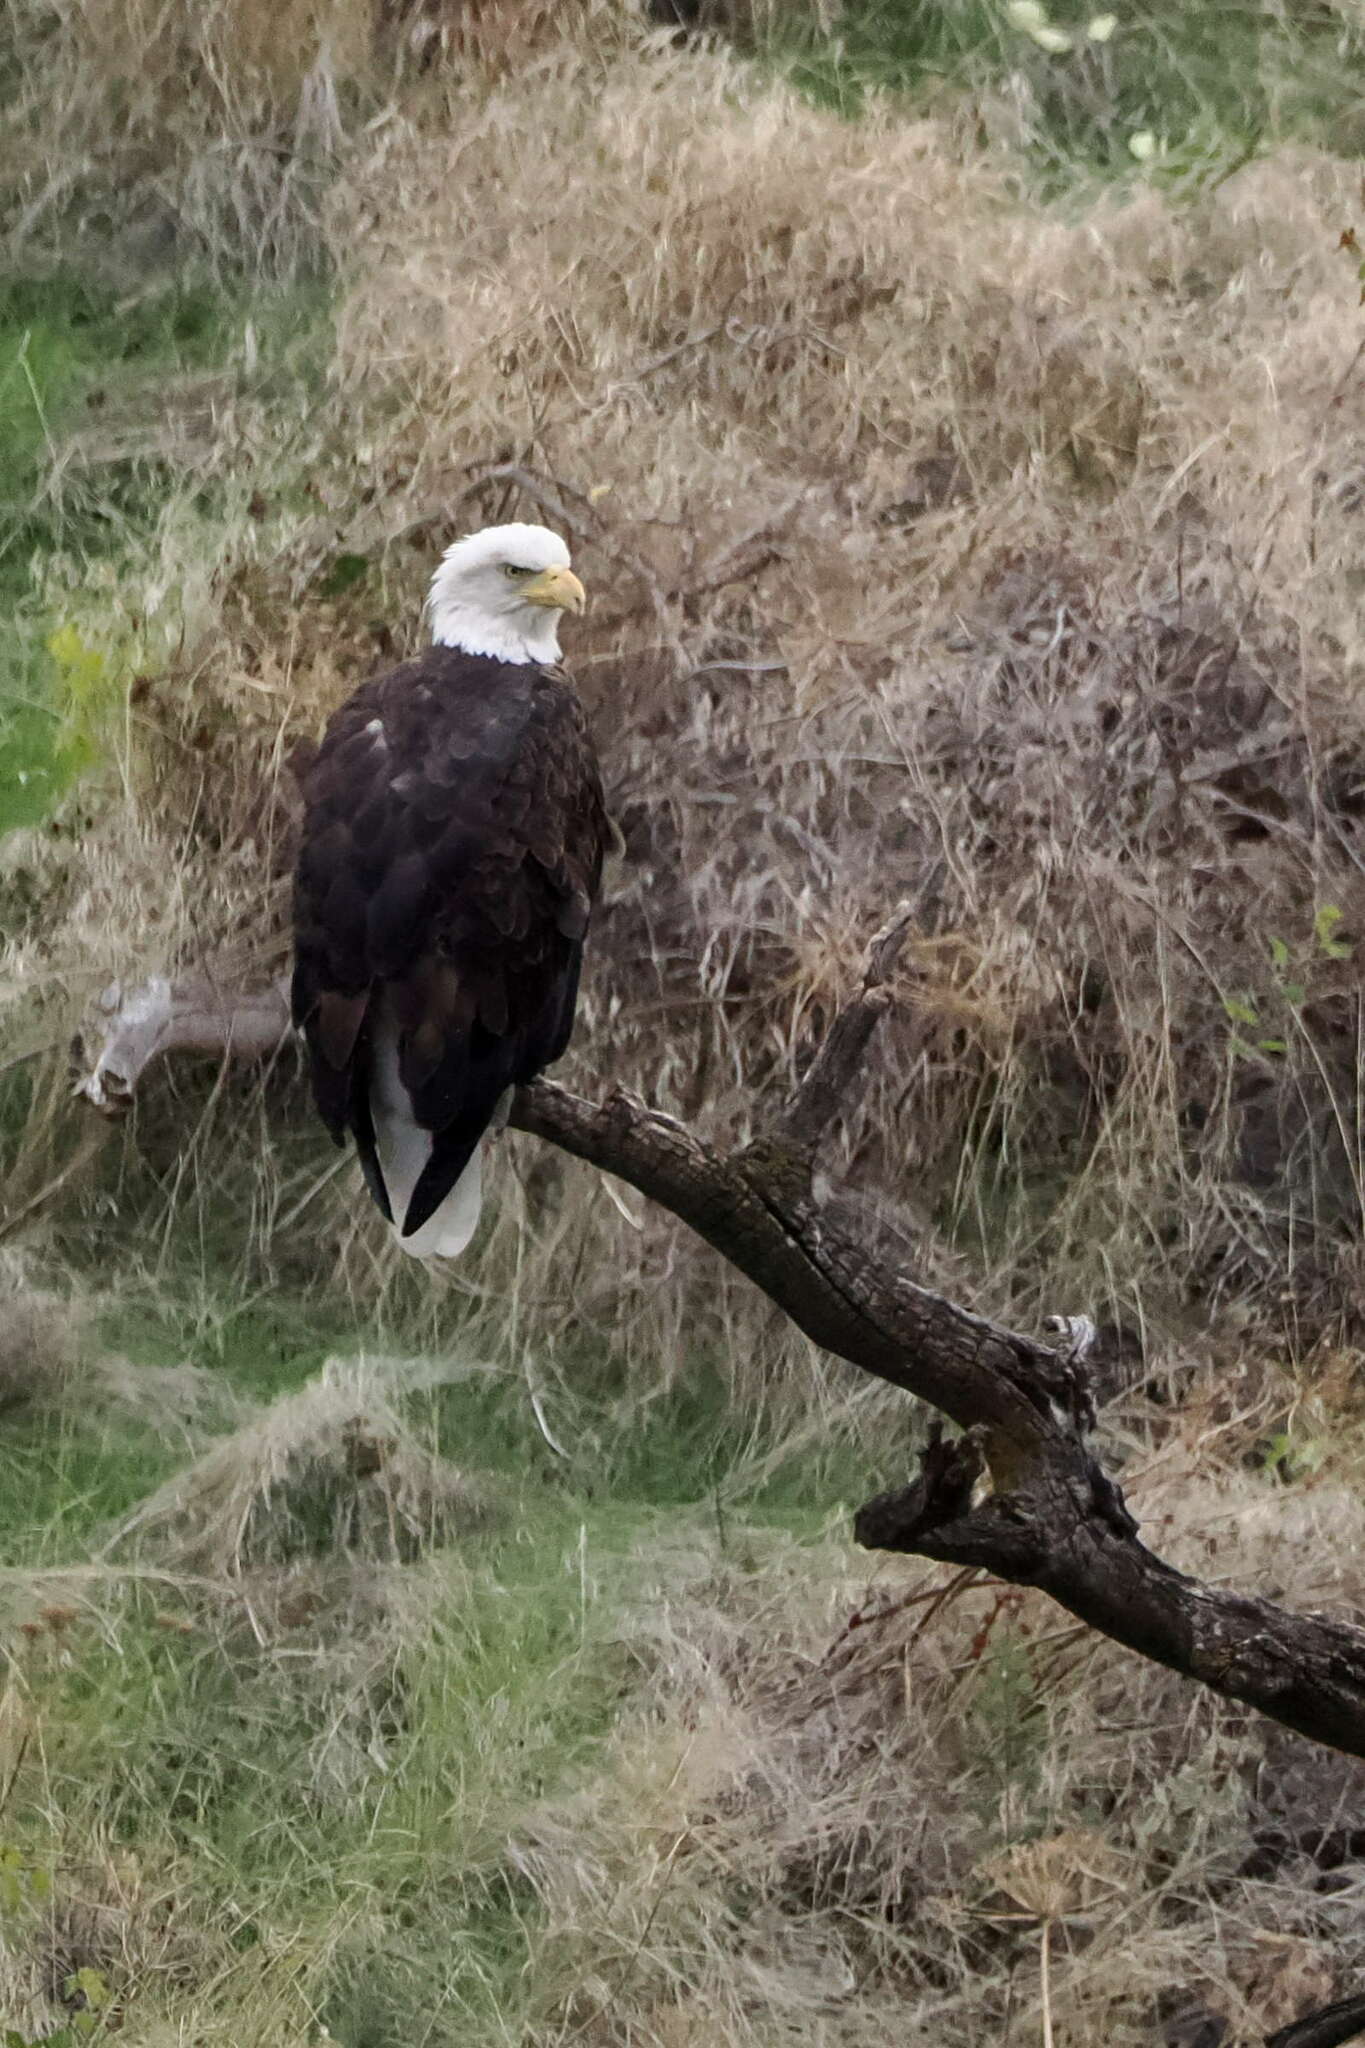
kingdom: Animalia
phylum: Chordata
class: Aves
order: Accipitriformes
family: Accipitridae
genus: Haliaeetus
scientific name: Haliaeetus leucocephalus
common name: Bald eagle
